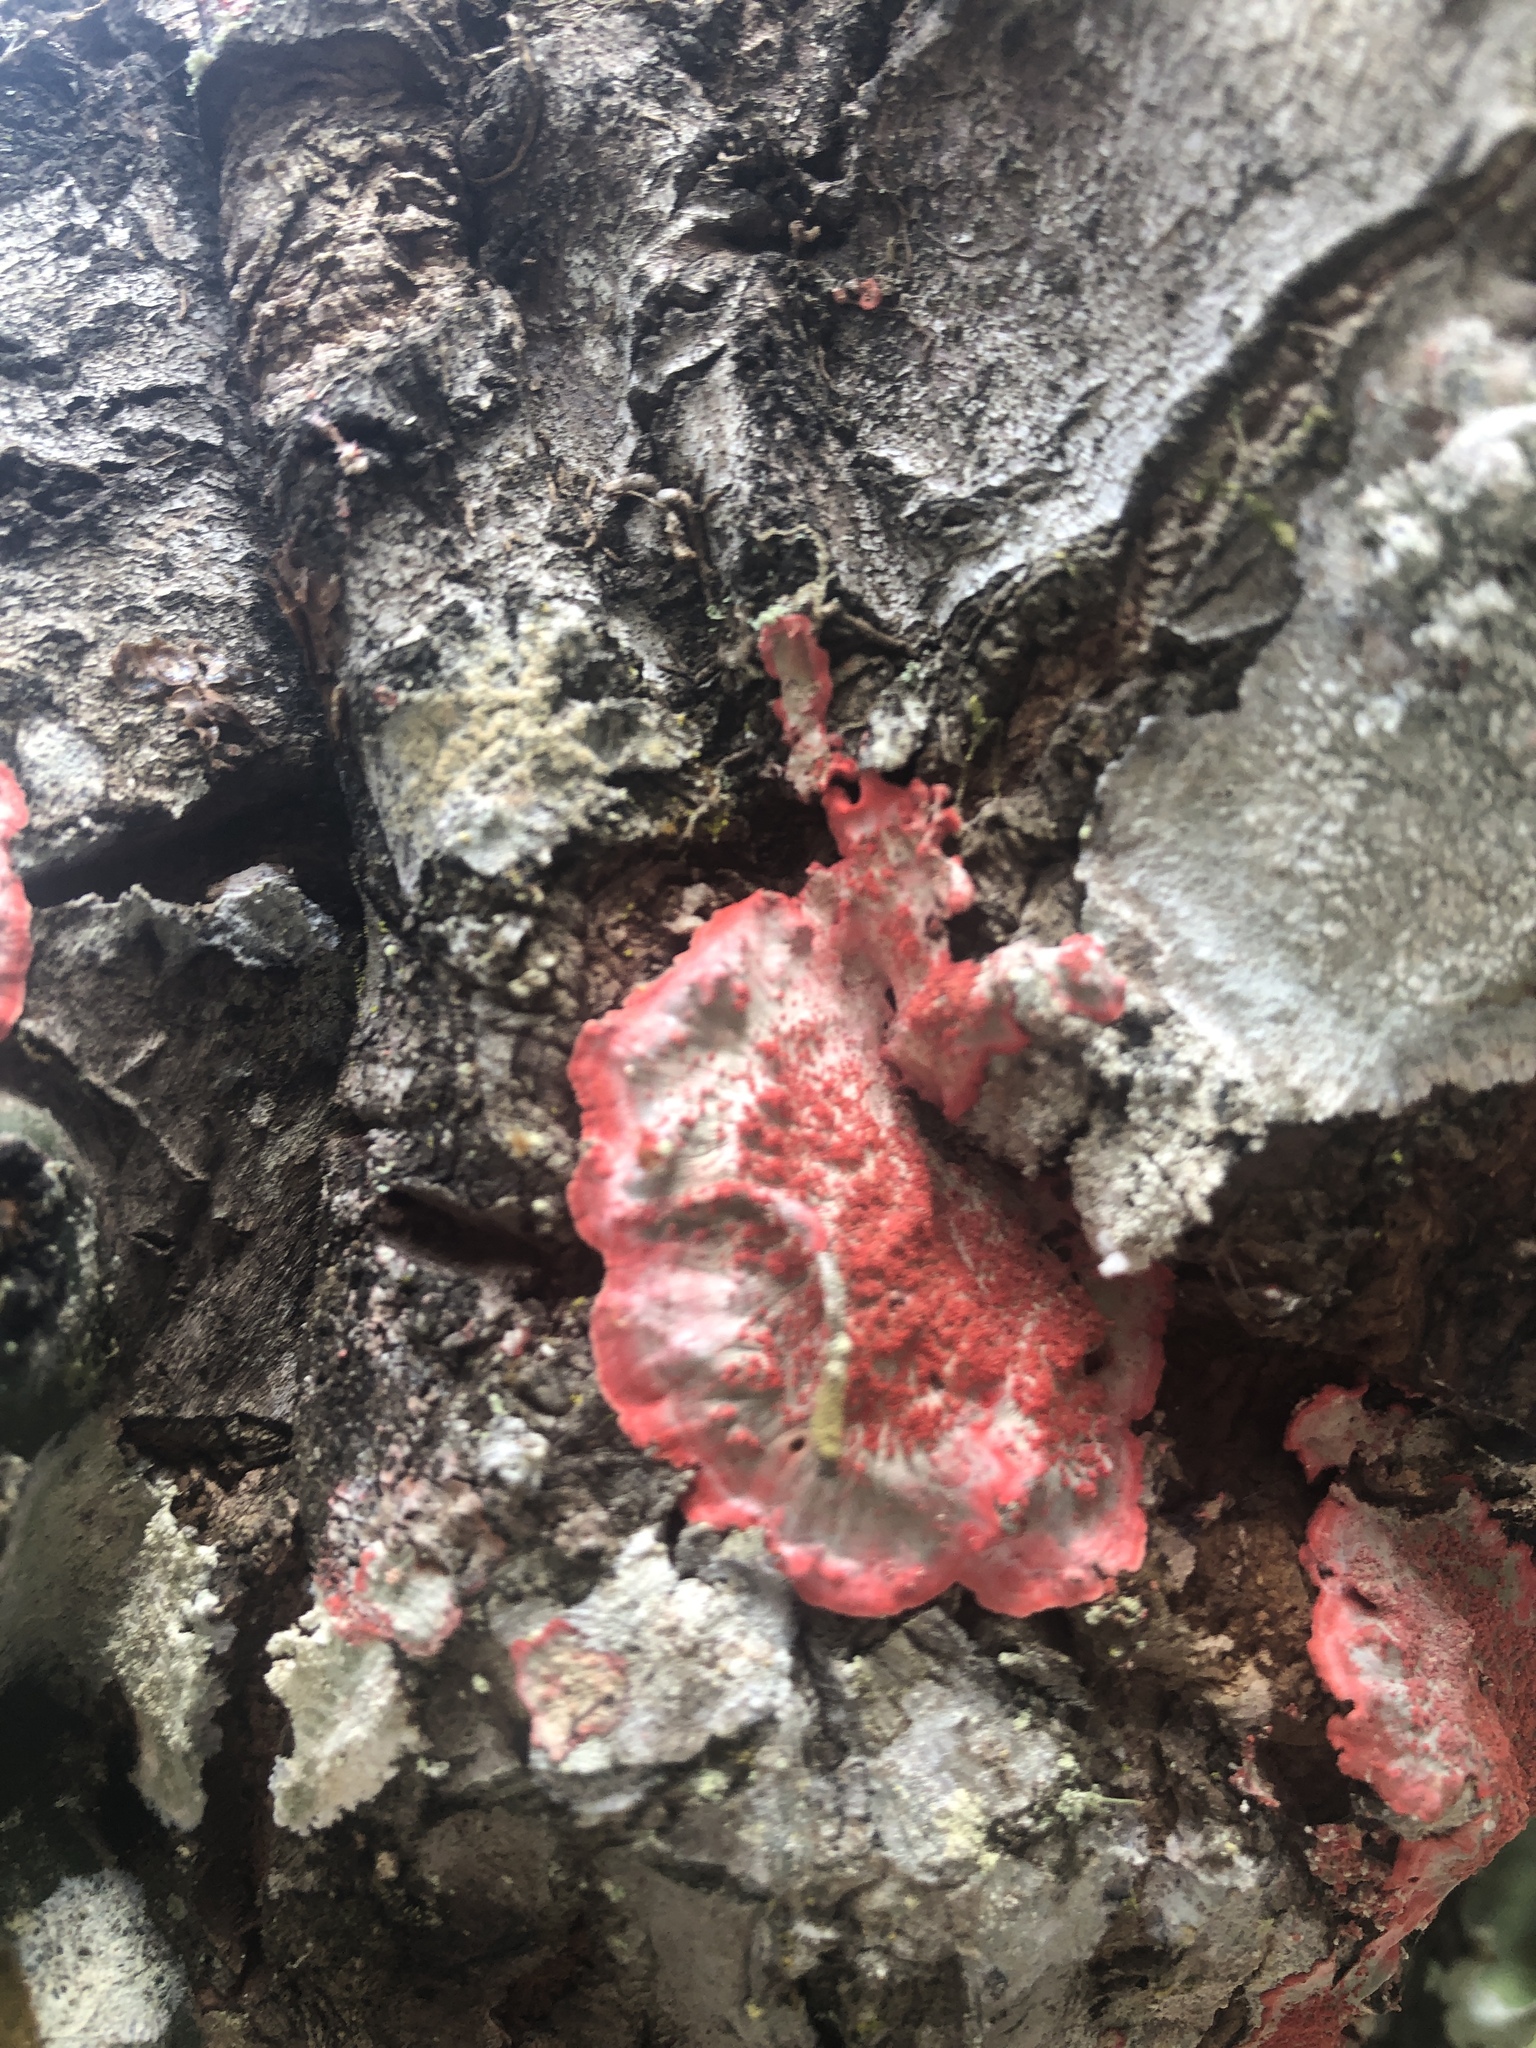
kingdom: Fungi
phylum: Ascomycota
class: Arthoniomycetes
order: Arthoniales
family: Arthoniaceae
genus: Herpothallon
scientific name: Herpothallon rubrocinctum
